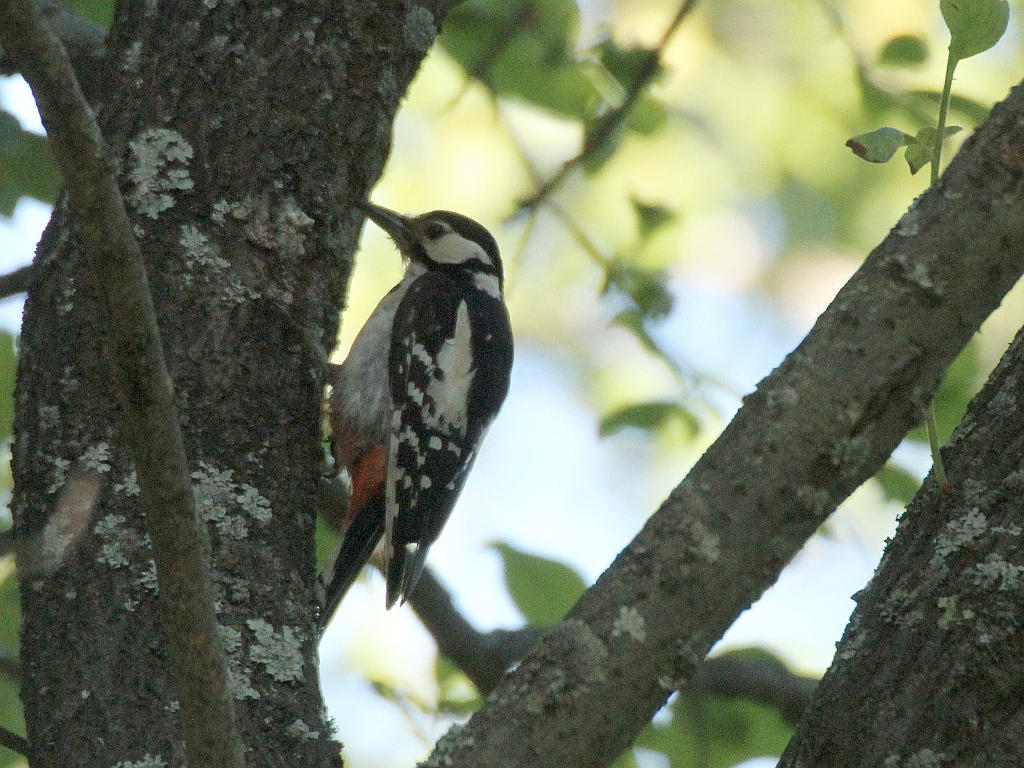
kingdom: Animalia
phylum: Chordata
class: Aves
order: Piciformes
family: Picidae
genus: Dendrocopos
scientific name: Dendrocopos major
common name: Great spotted woodpecker
